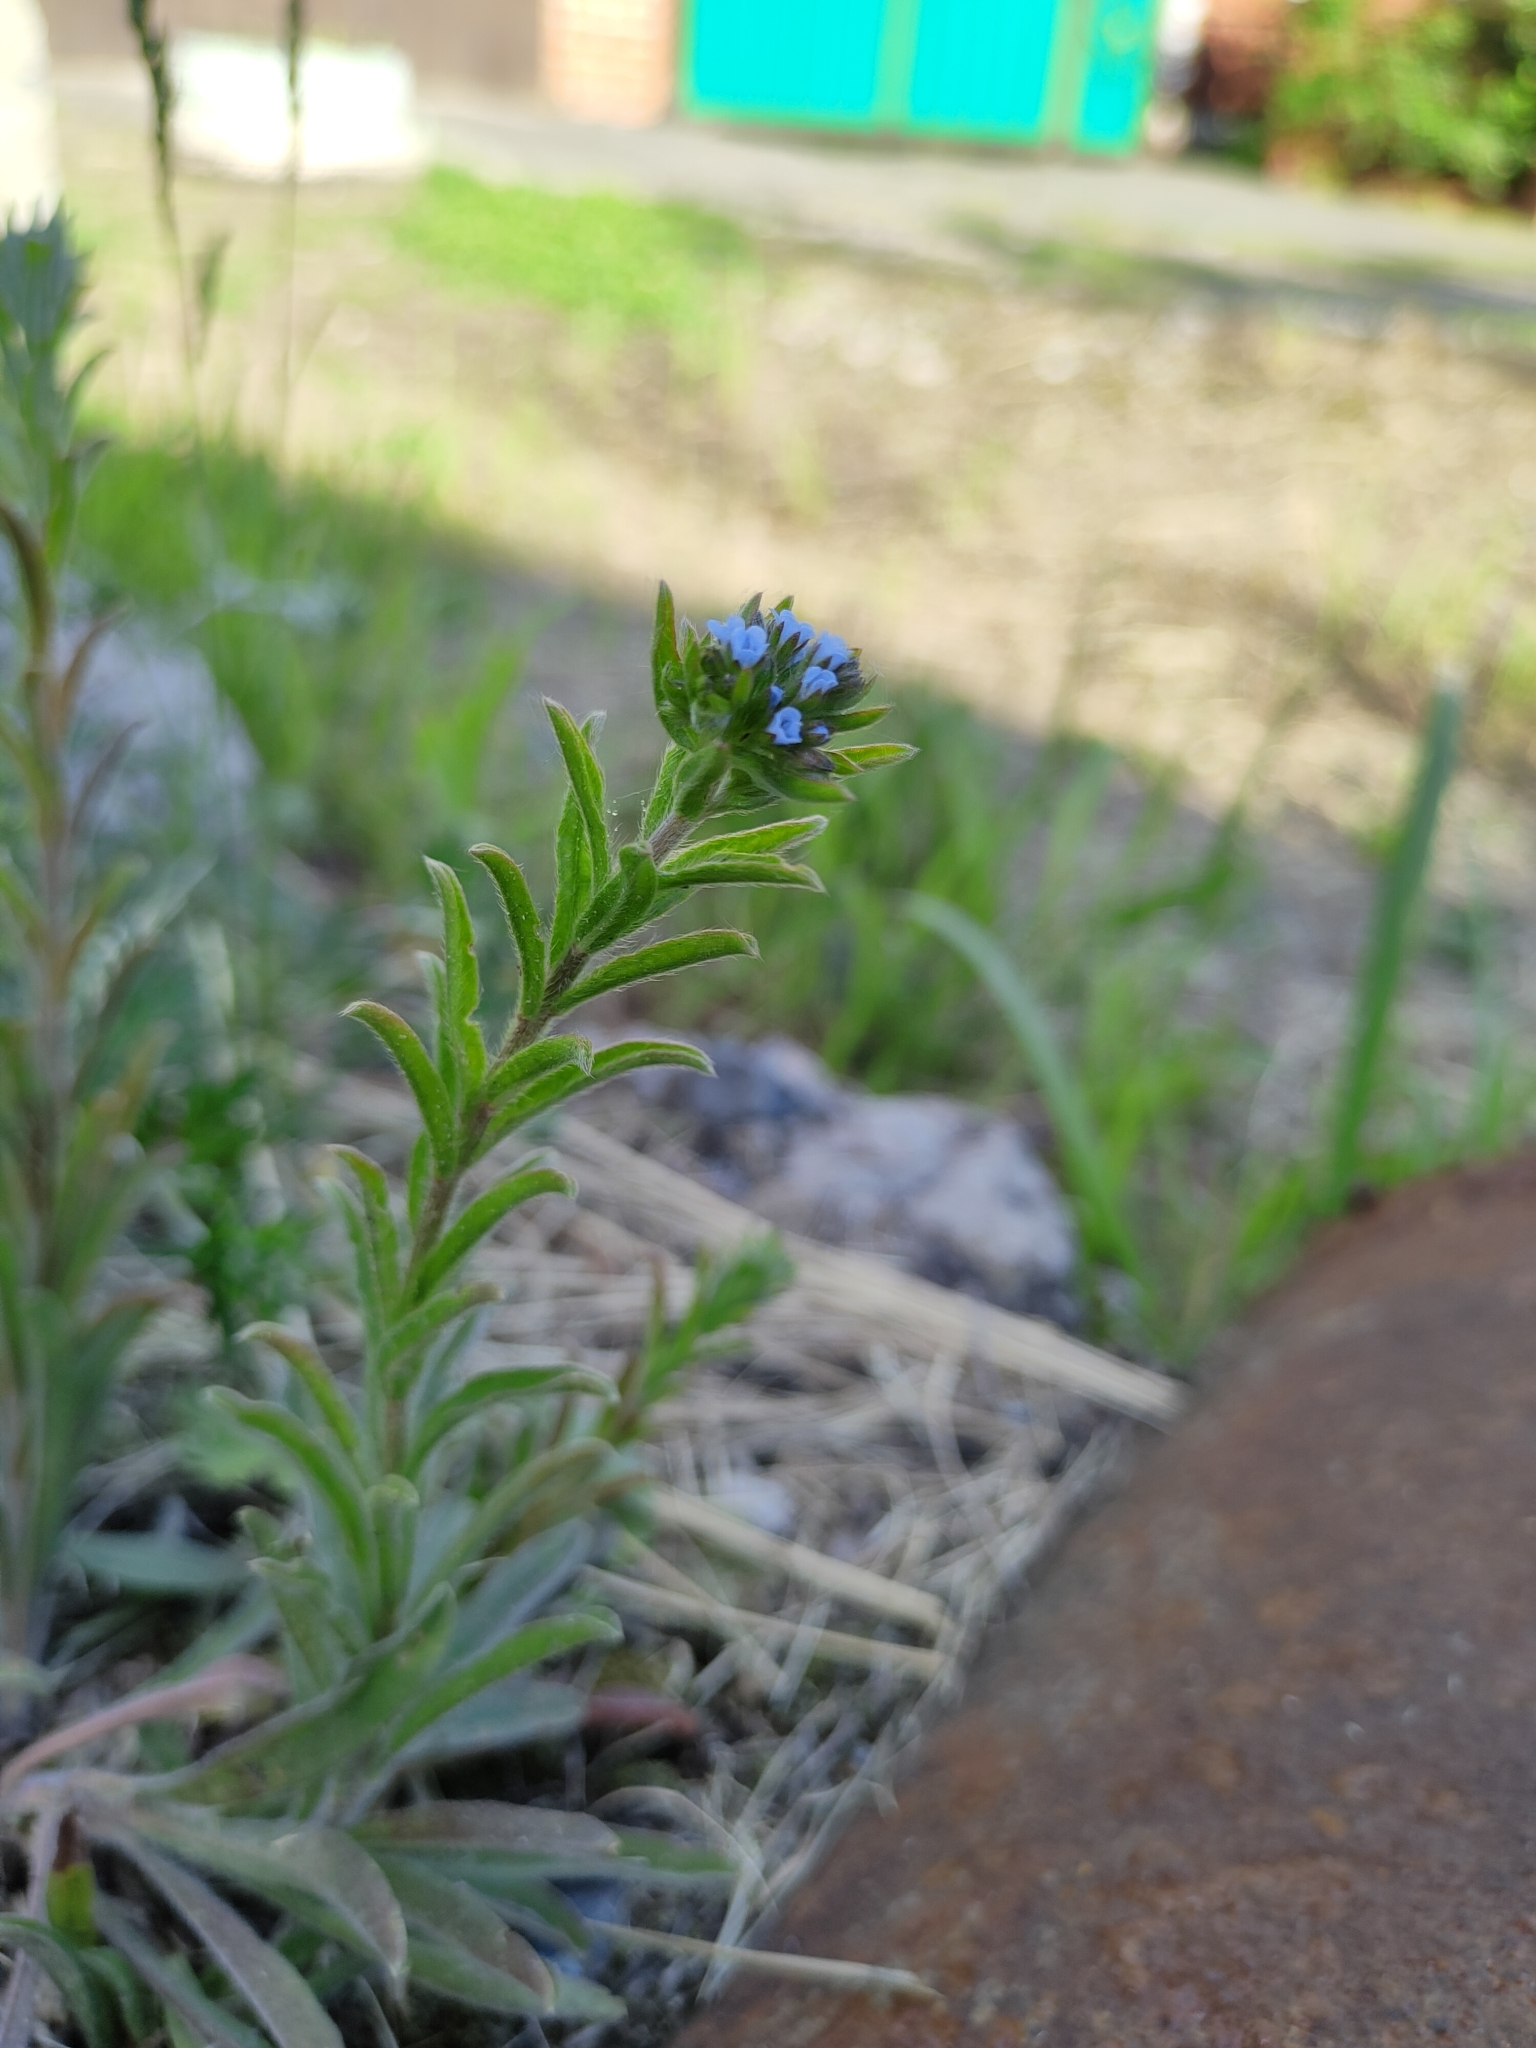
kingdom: Plantae
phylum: Tracheophyta
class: Magnoliopsida
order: Boraginales
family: Boraginaceae
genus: Lappula
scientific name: Lappula squarrosa
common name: European stickseed
